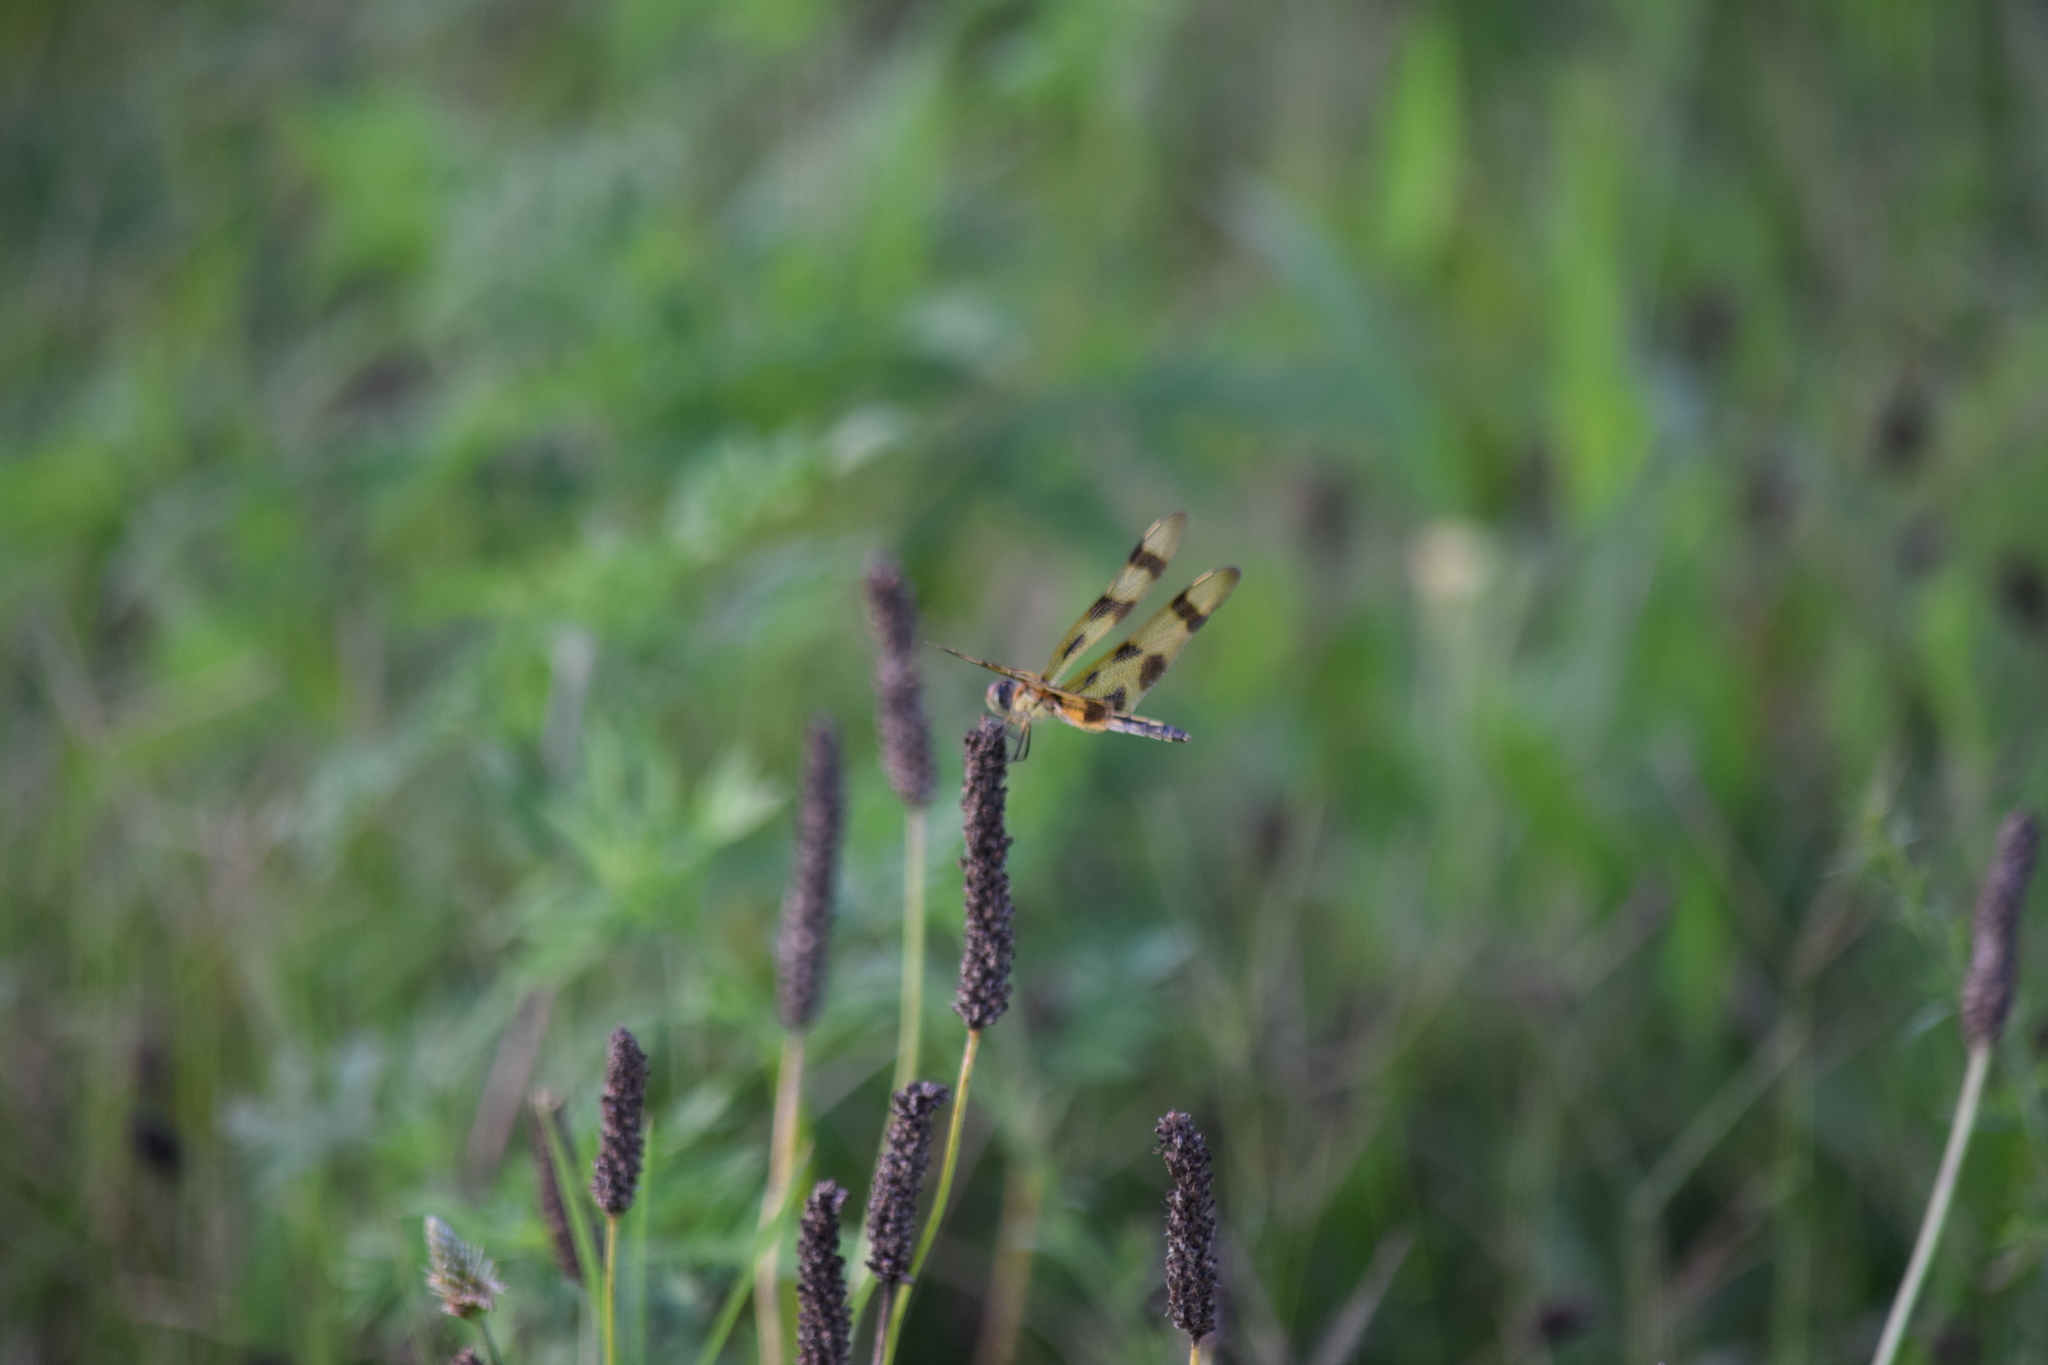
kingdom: Animalia
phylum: Arthropoda
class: Insecta
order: Odonata
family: Libellulidae
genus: Celithemis
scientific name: Celithemis eponina
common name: Halloween pennant
